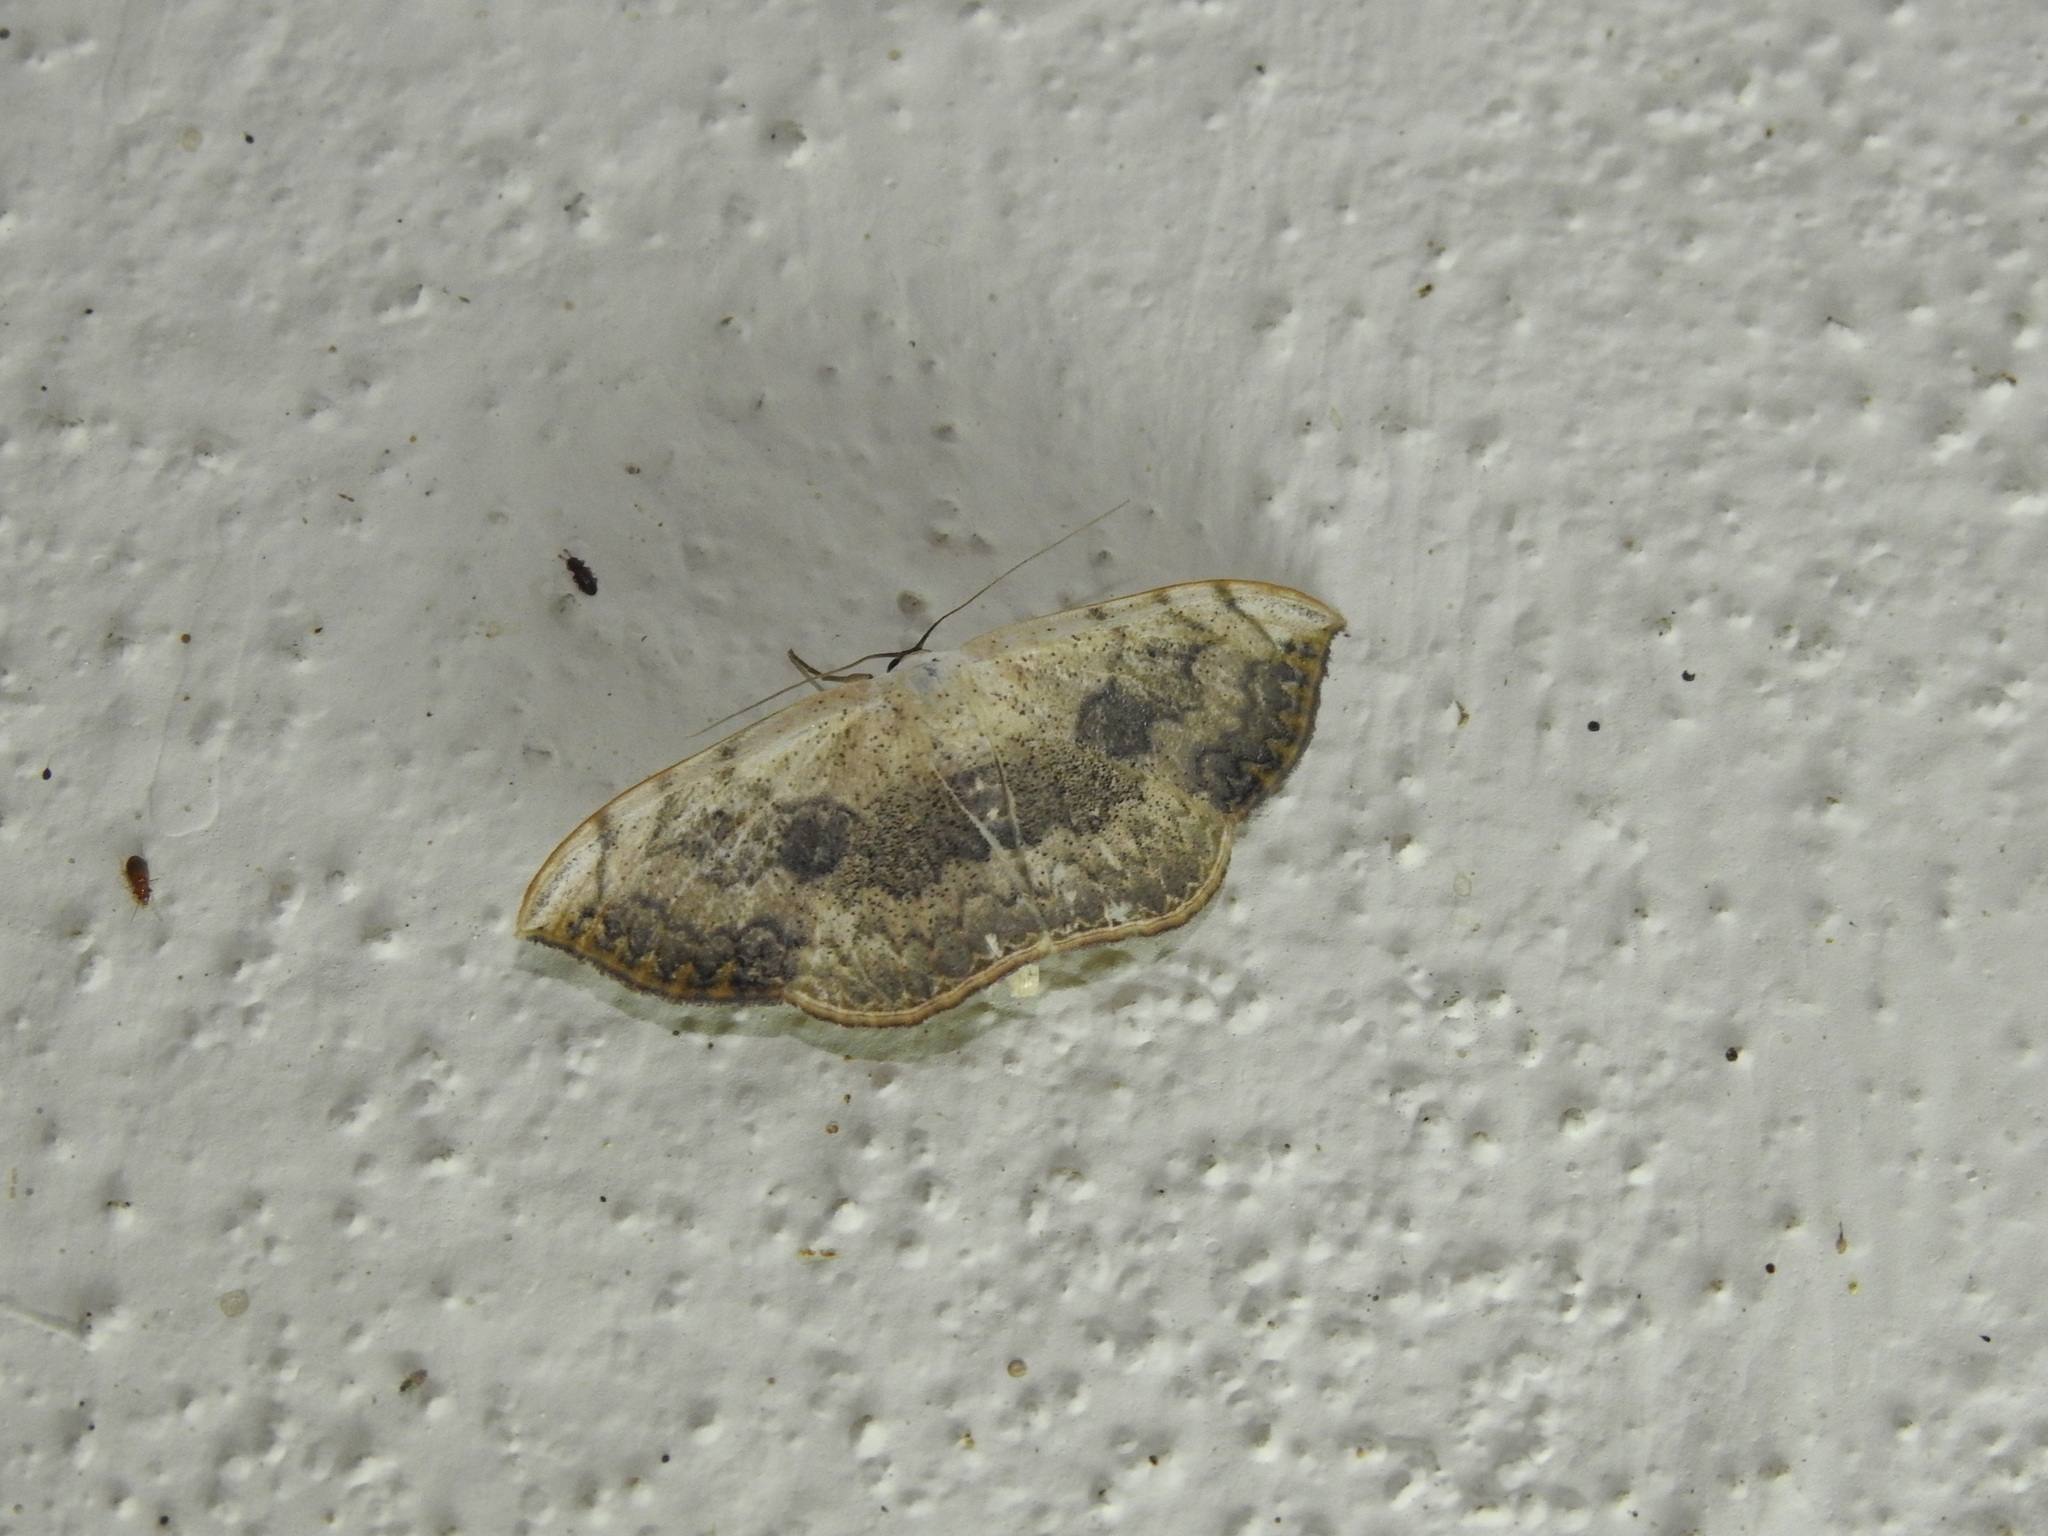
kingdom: Animalia
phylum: Arthropoda
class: Insecta
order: Lepidoptera
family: Geometridae
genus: Somatina
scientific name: Somatina purpurascens
